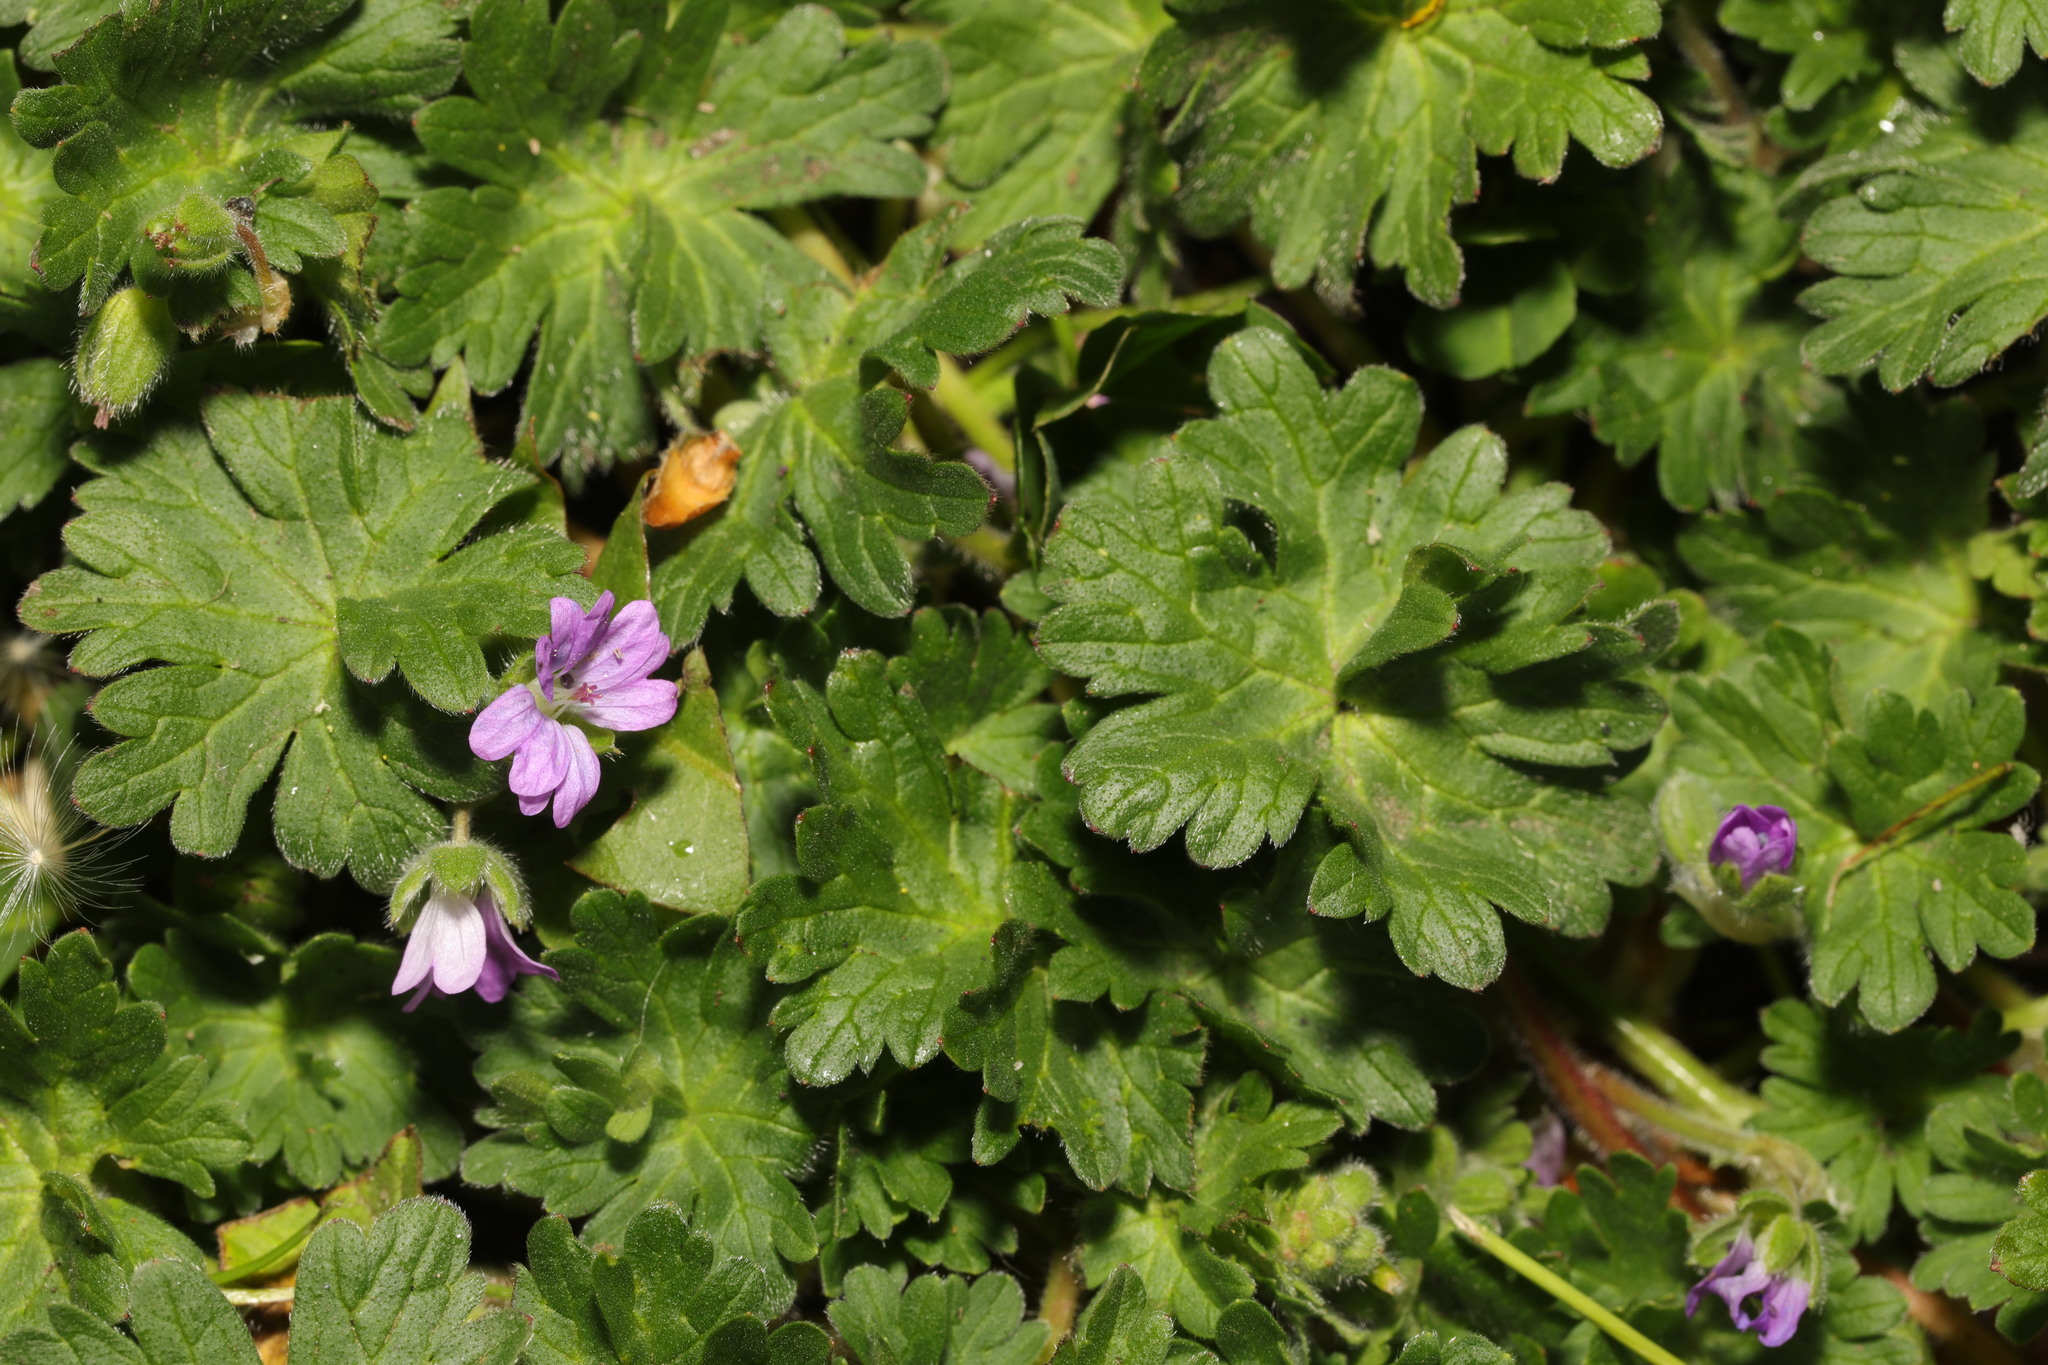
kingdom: Plantae
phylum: Tracheophyta
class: Magnoliopsida
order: Geraniales
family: Geraniaceae
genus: Geranium
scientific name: Geranium molle
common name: Dove's-foot crane's-bill
